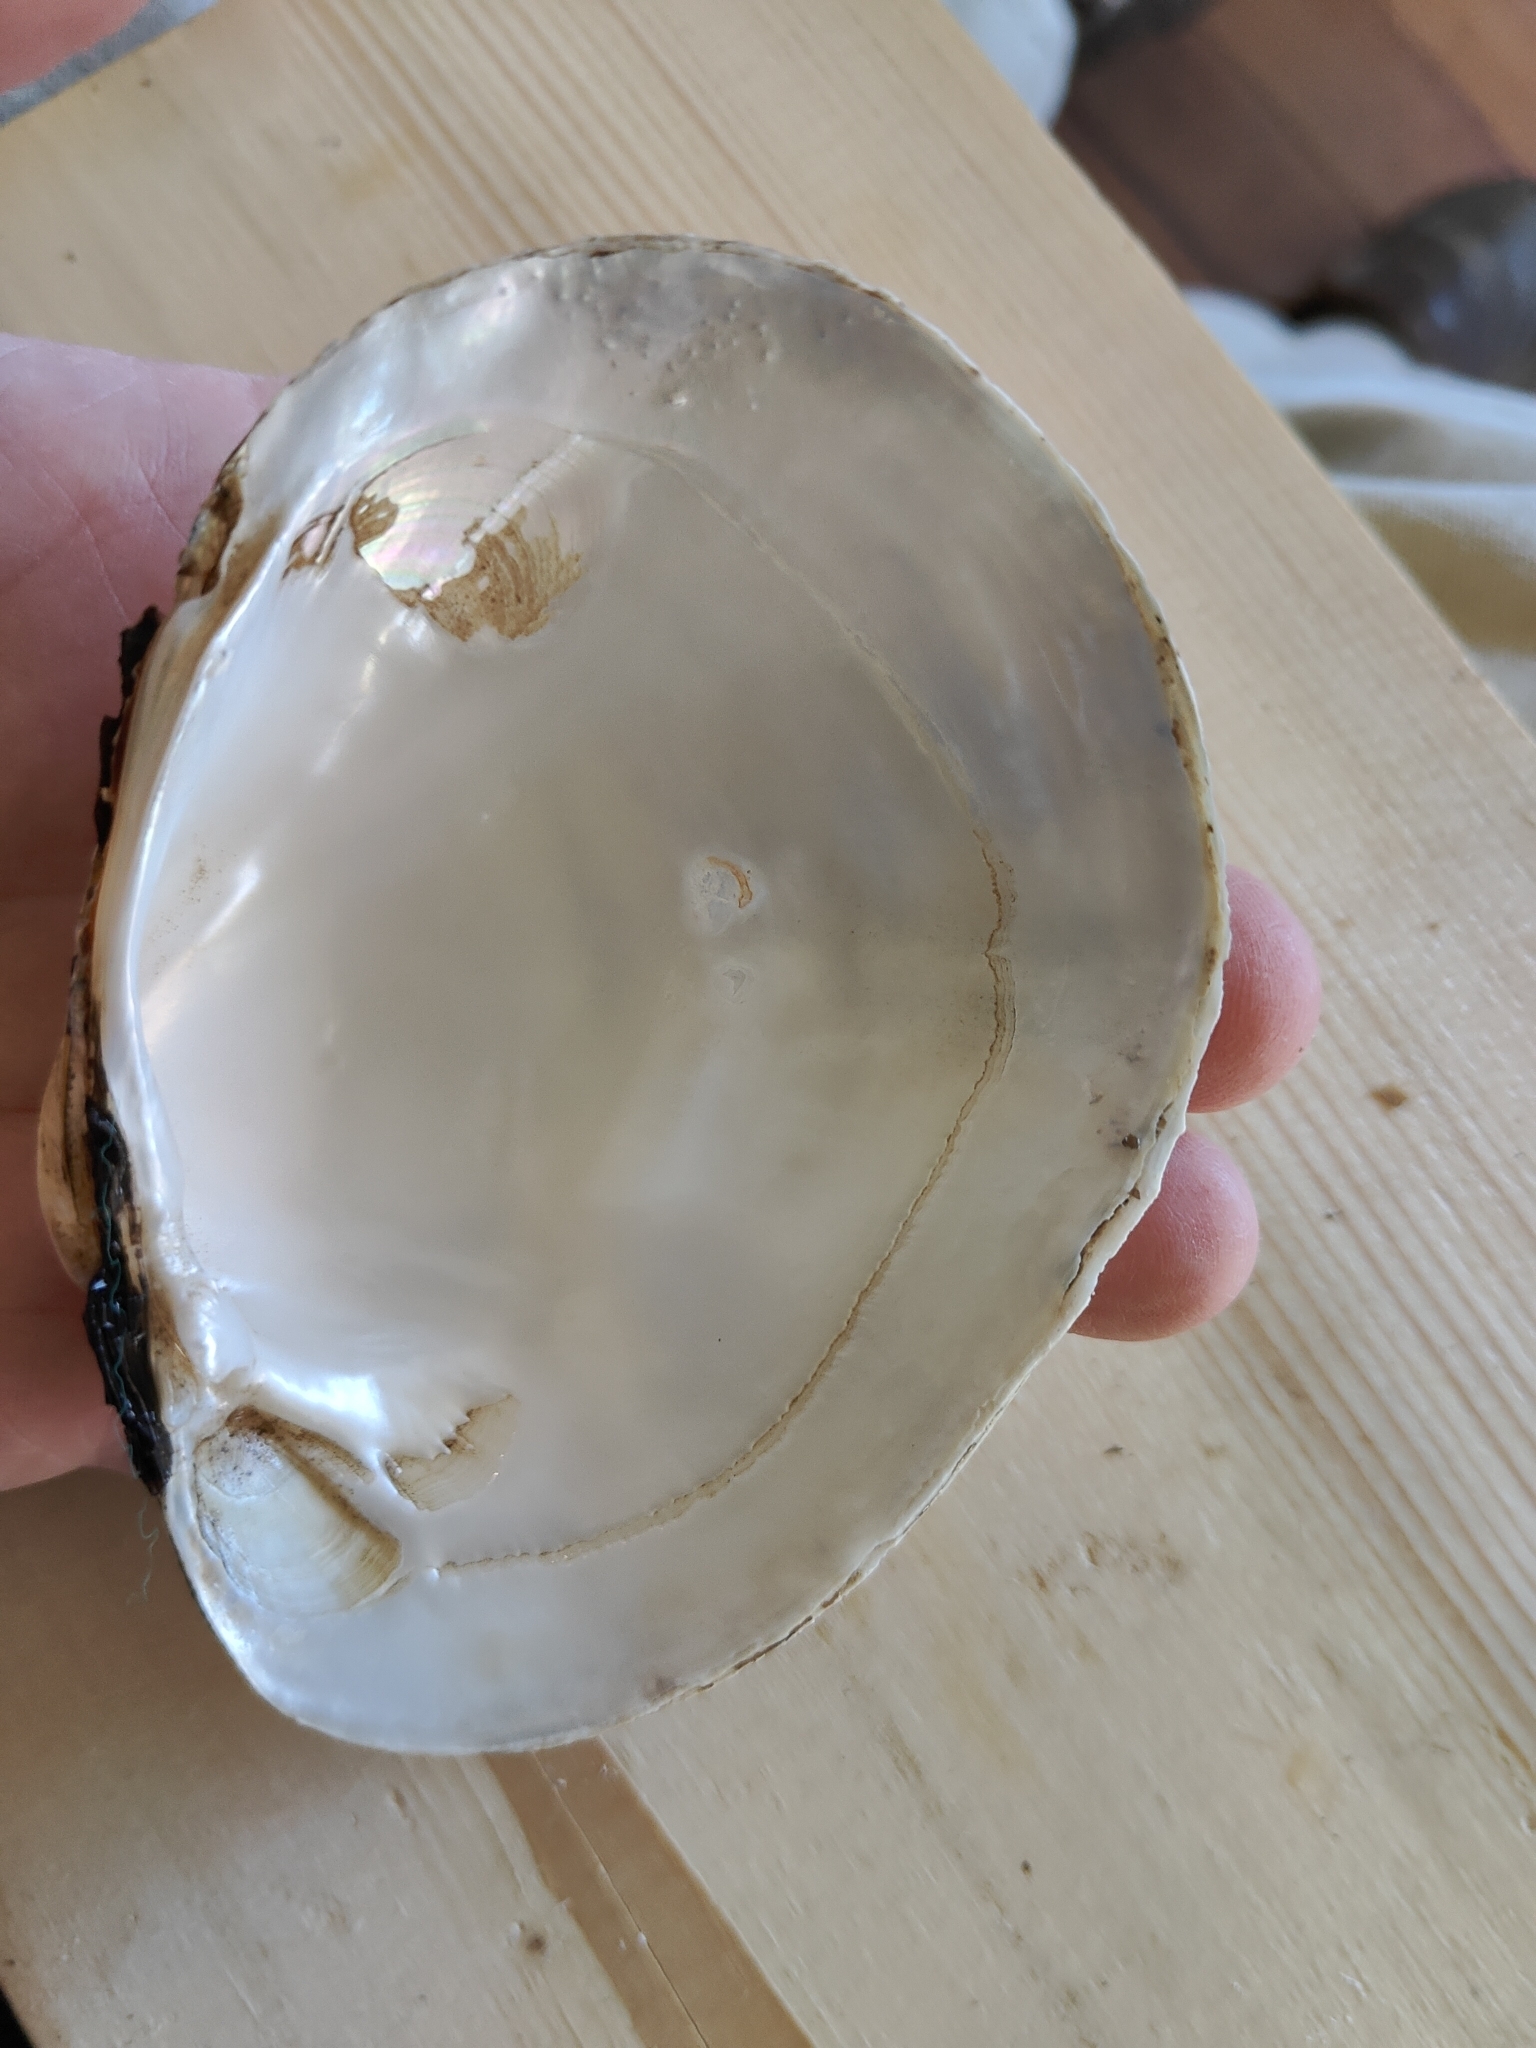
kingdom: Animalia
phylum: Mollusca
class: Bivalvia
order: Unionida
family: Unionidae
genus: Lampsilis
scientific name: Lampsilis cardium
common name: Plain pocketbook
